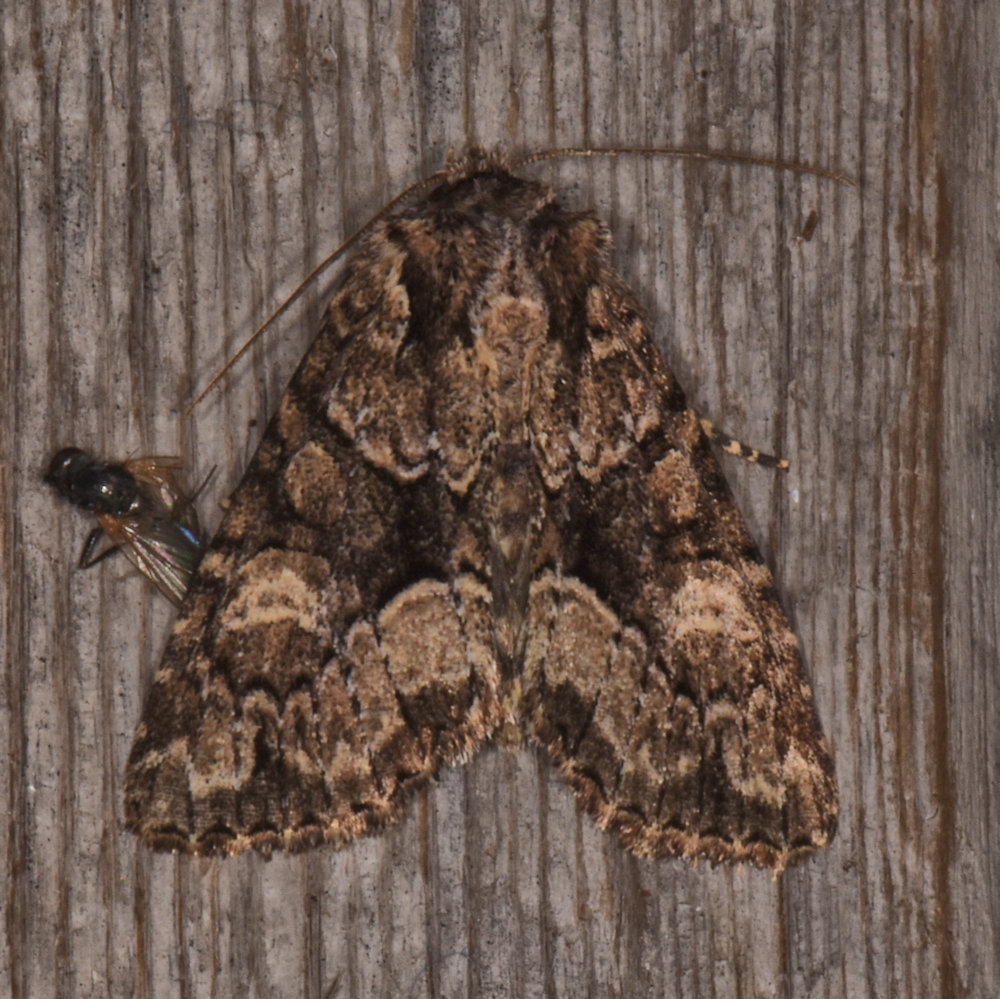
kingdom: Animalia
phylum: Arthropoda
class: Insecta
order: Lepidoptera
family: Noctuidae
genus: Platypolia
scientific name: Platypolia mactata
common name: Adorable brocade moth
